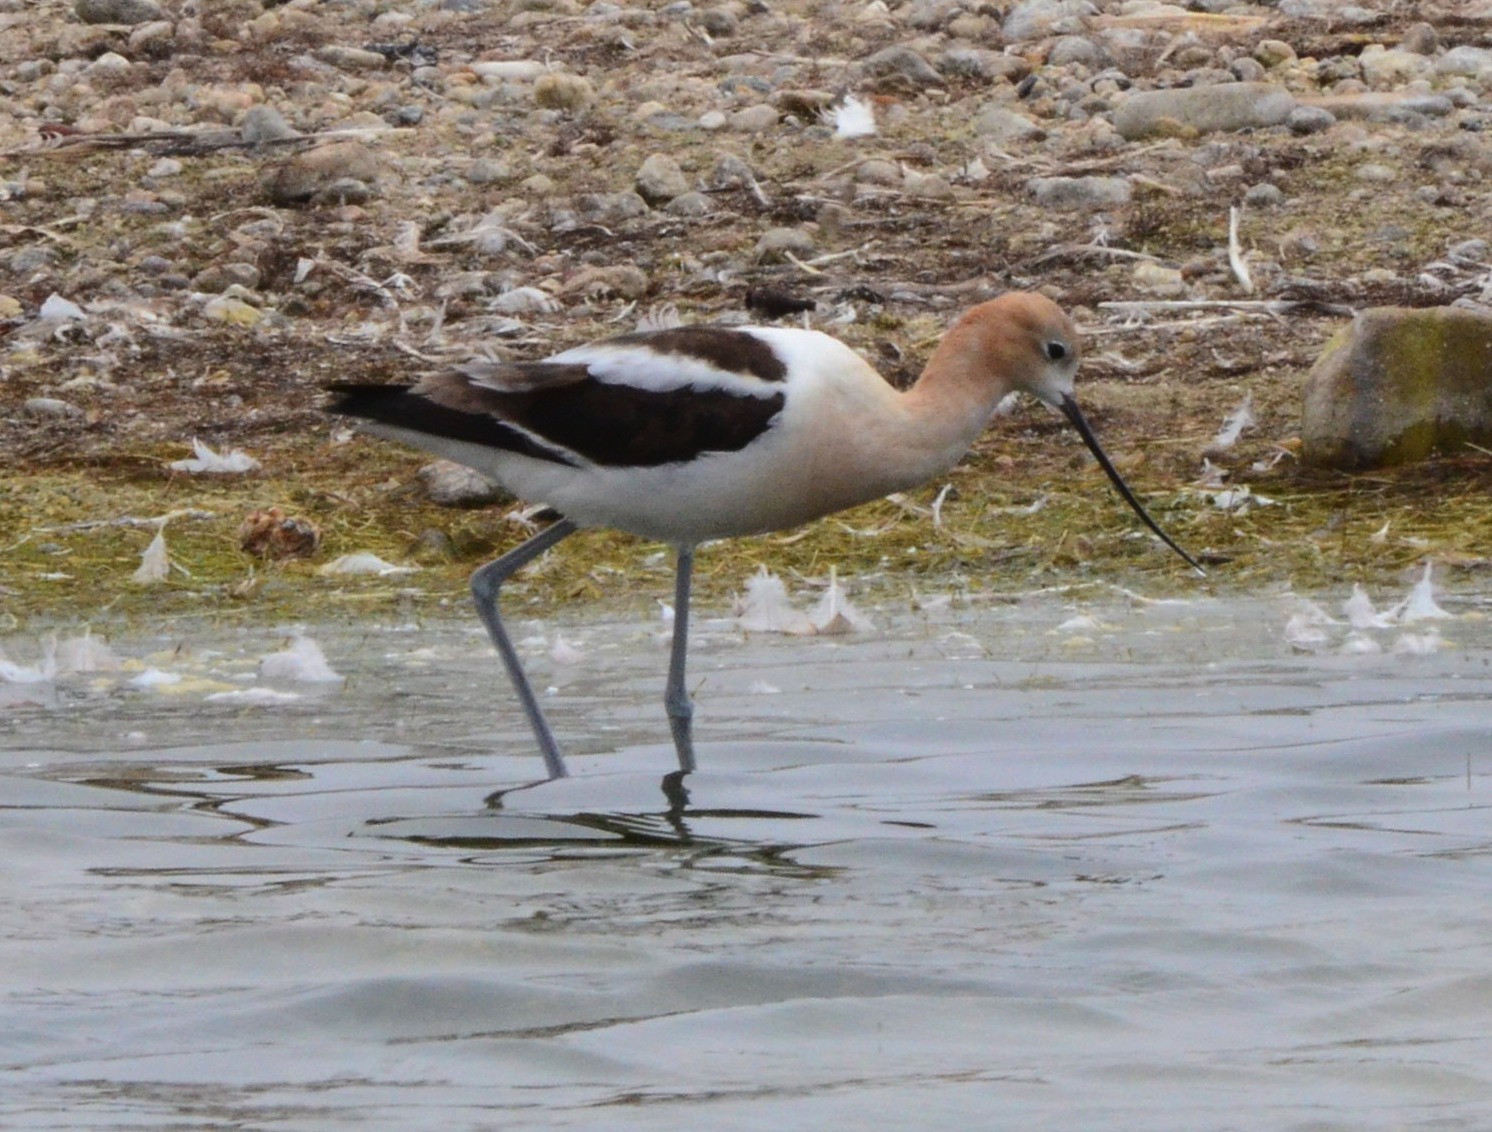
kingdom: Animalia
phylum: Chordata
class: Aves
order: Charadriiformes
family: Recurvirostridae
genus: Recurvirostra
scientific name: Recurvirostra americana
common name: American avocet
